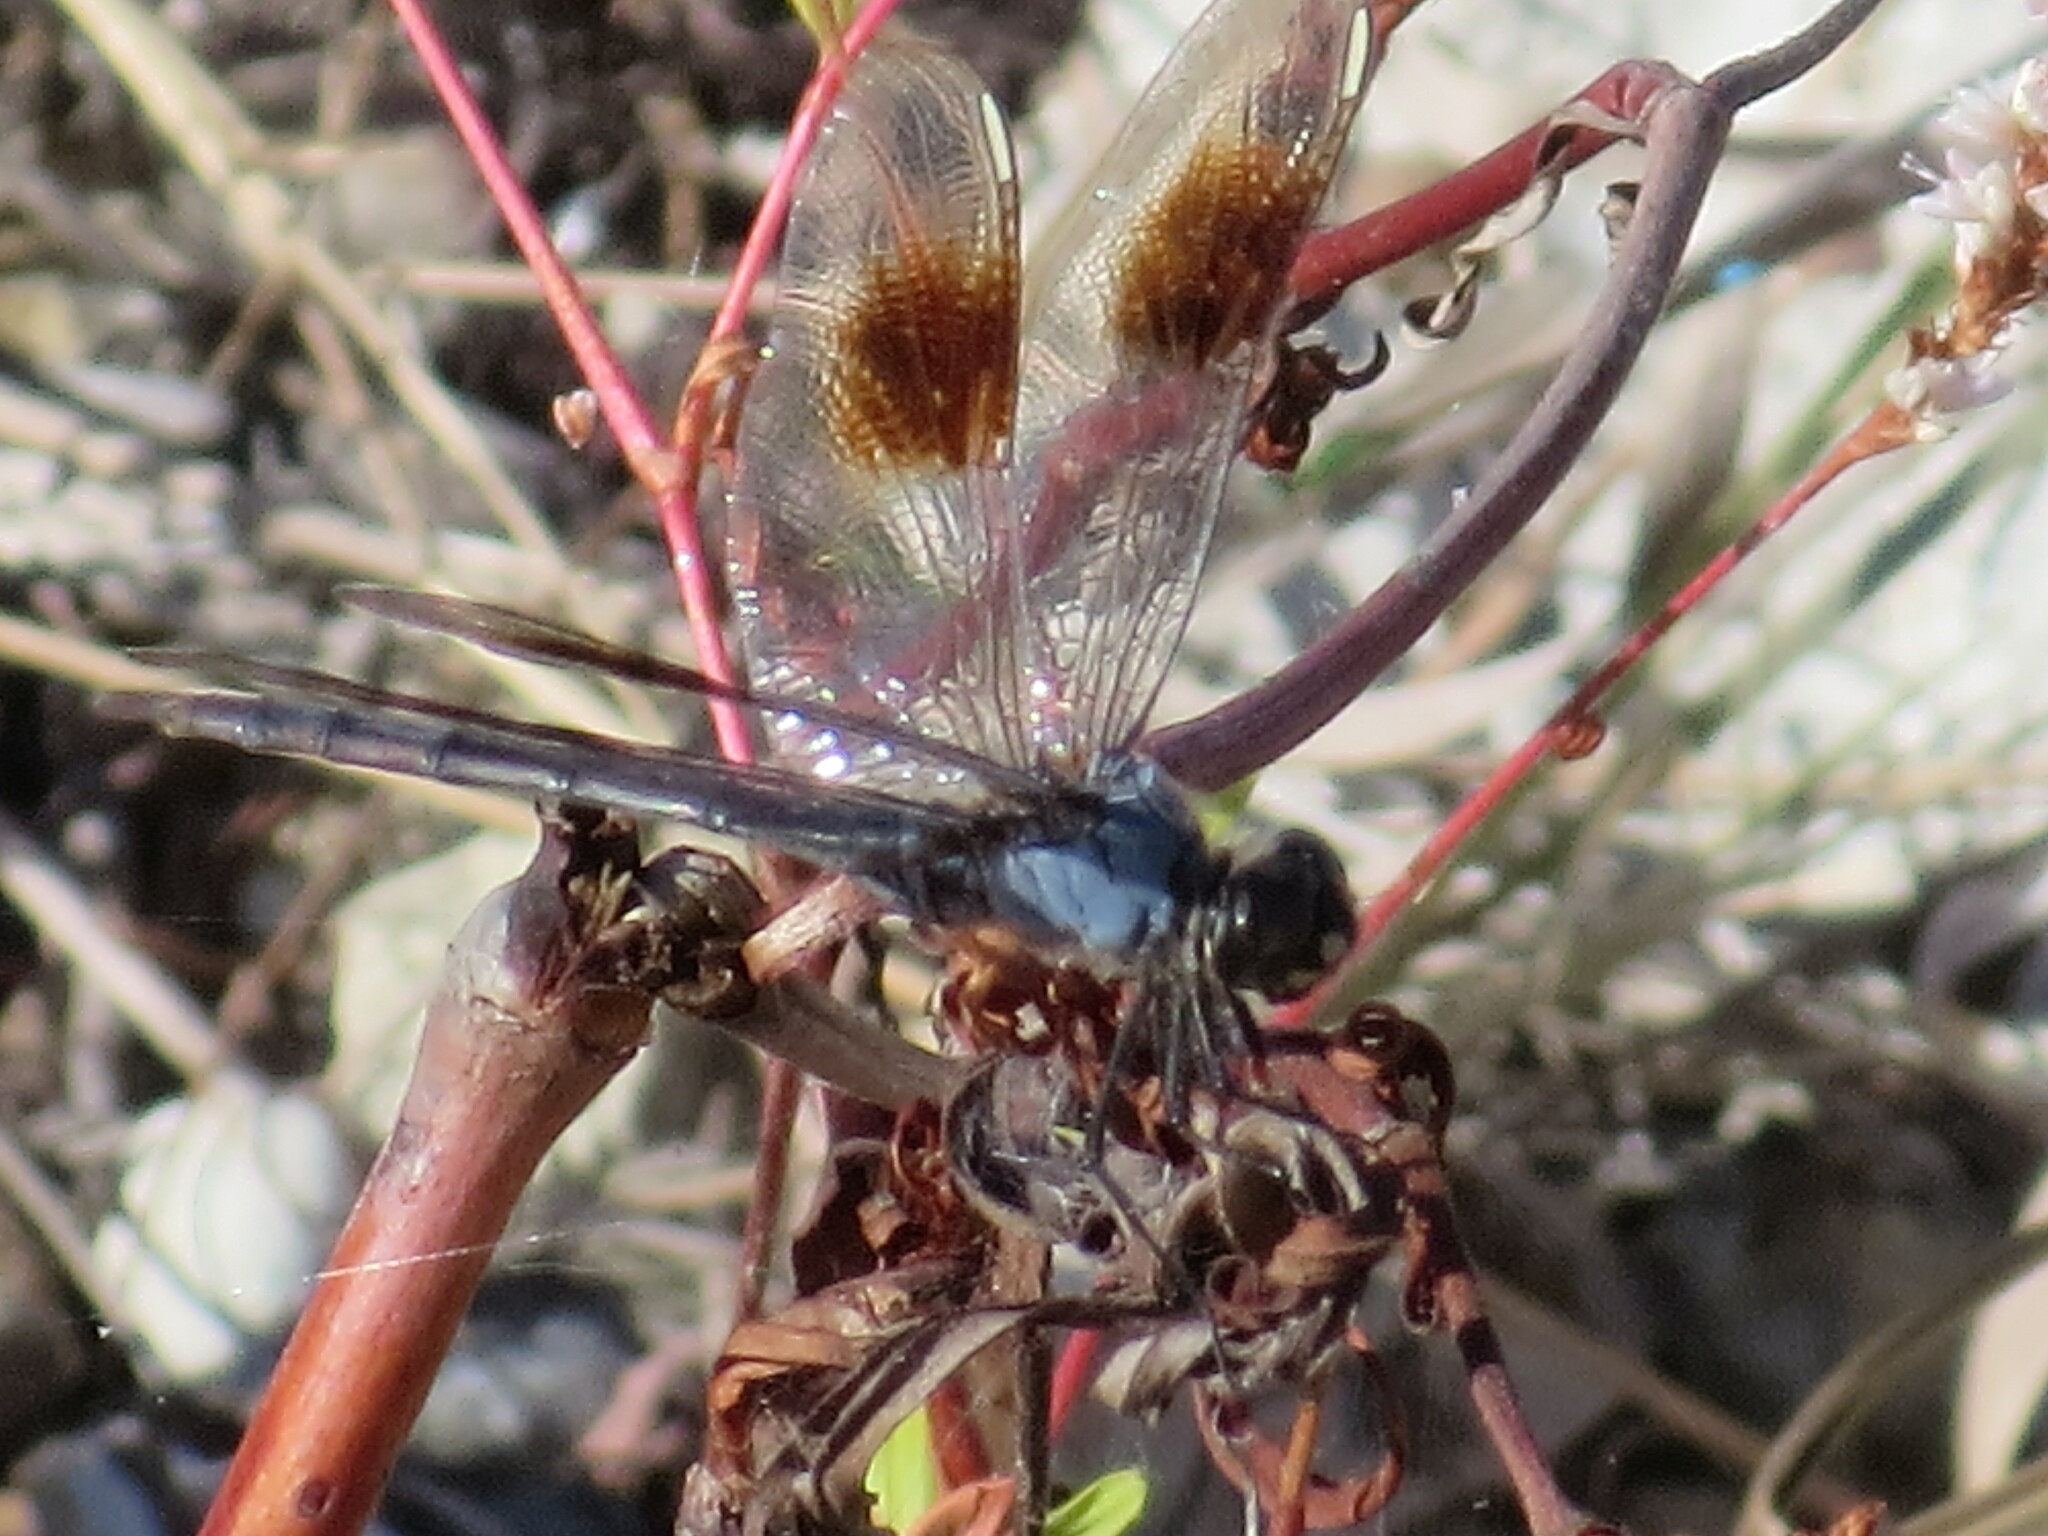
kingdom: Animalia
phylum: Arthropoda
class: Insecta
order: Odonata
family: Libellulidae
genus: Brachymesia
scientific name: Brachymesia gravida
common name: Four-spotted pennant
